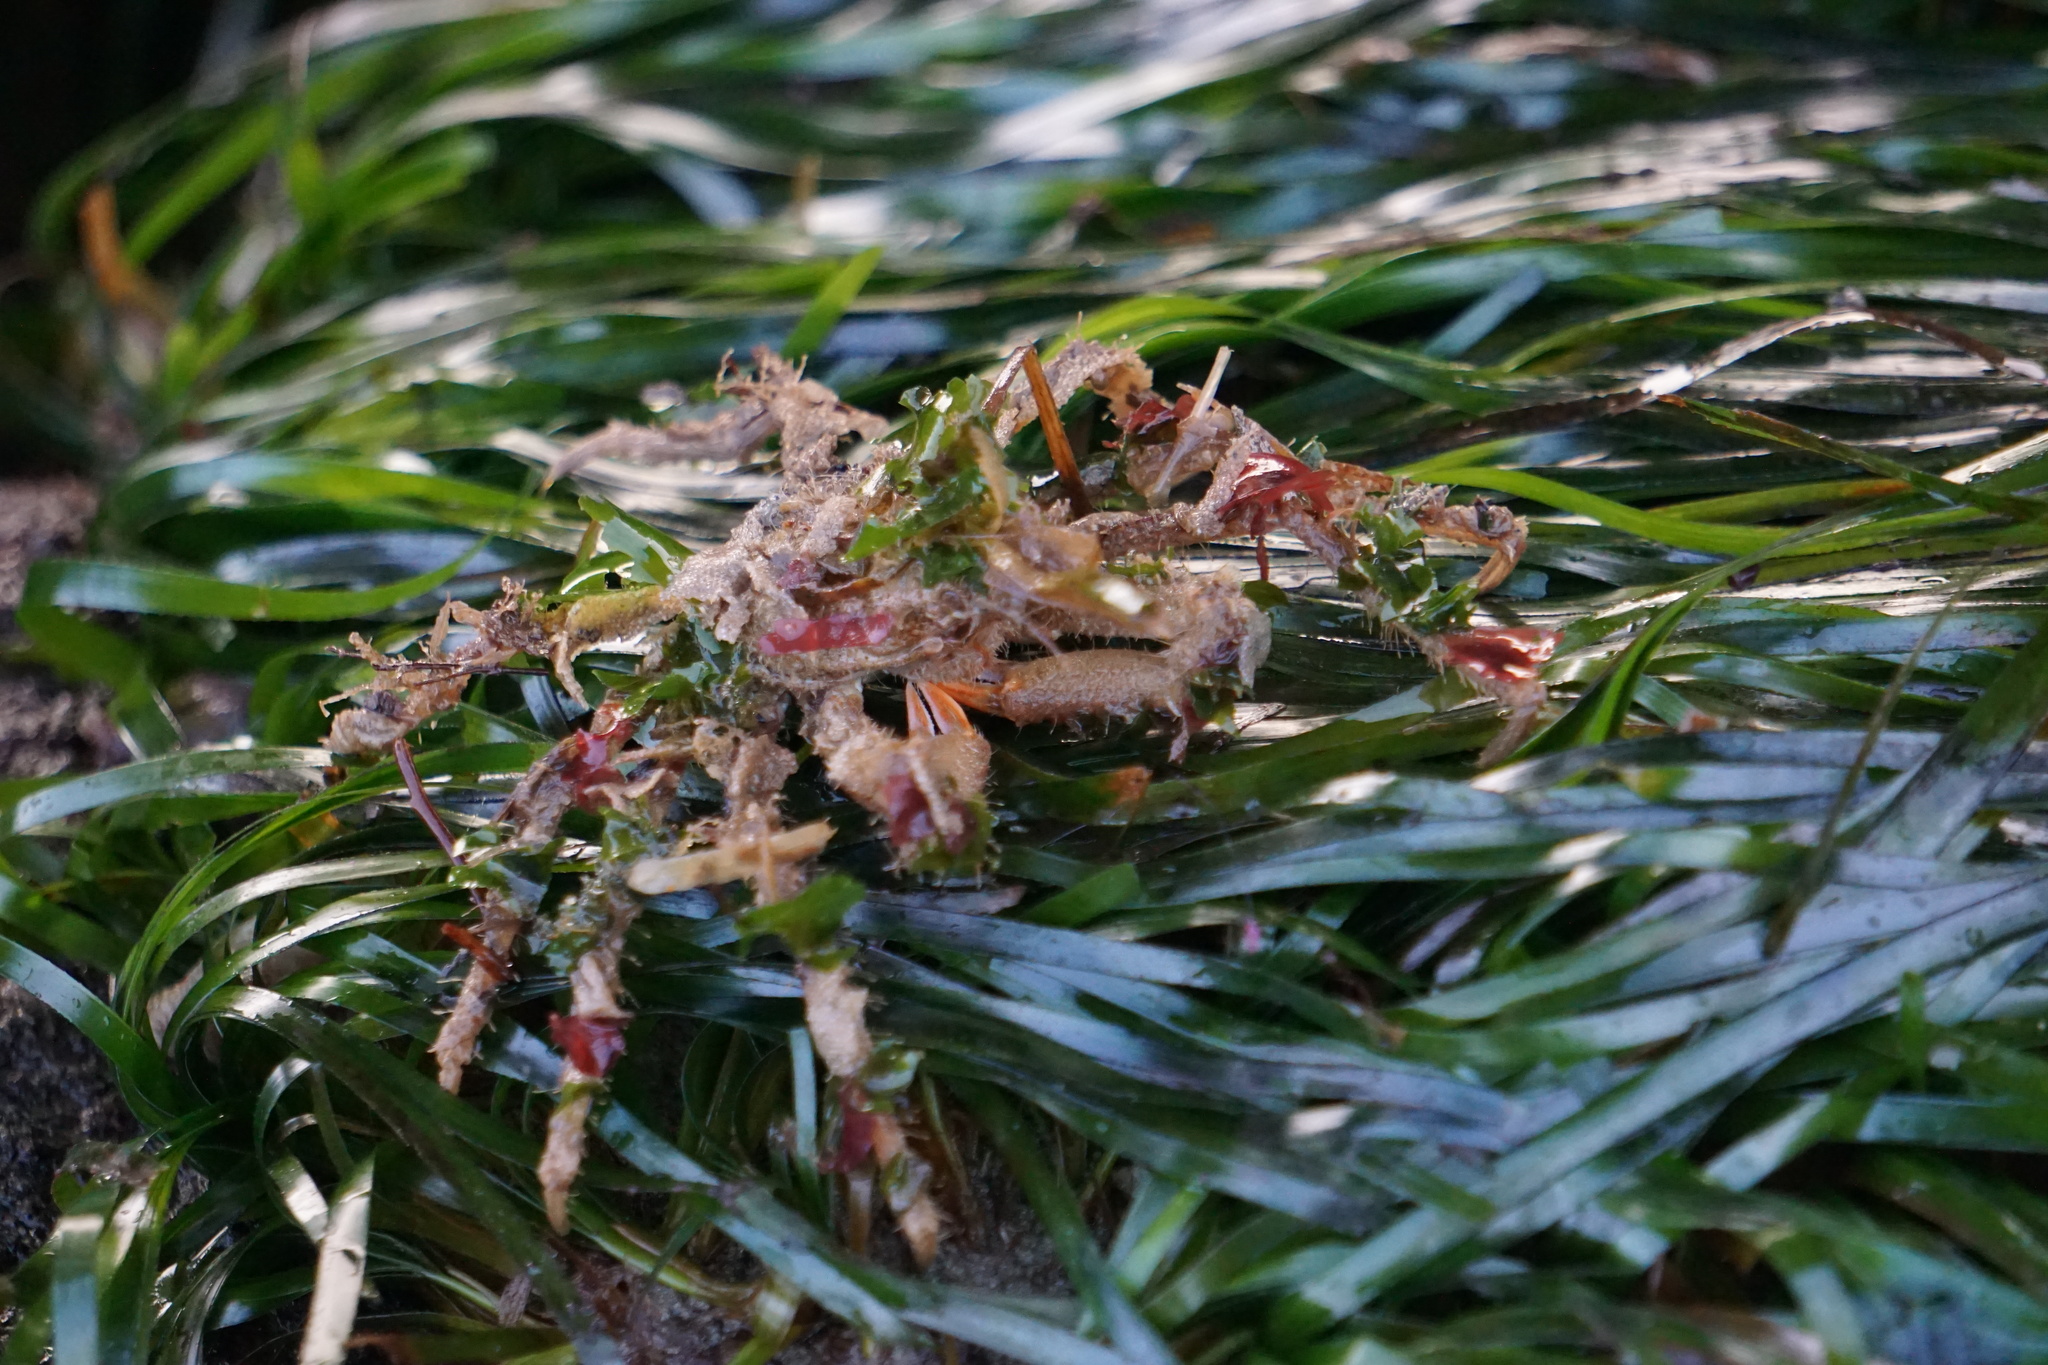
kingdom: Animalia
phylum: Arthropoda
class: Malacostraca
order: Decapoda
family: Oregoniidae
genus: Oregonia
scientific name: Oregonia gracilis
